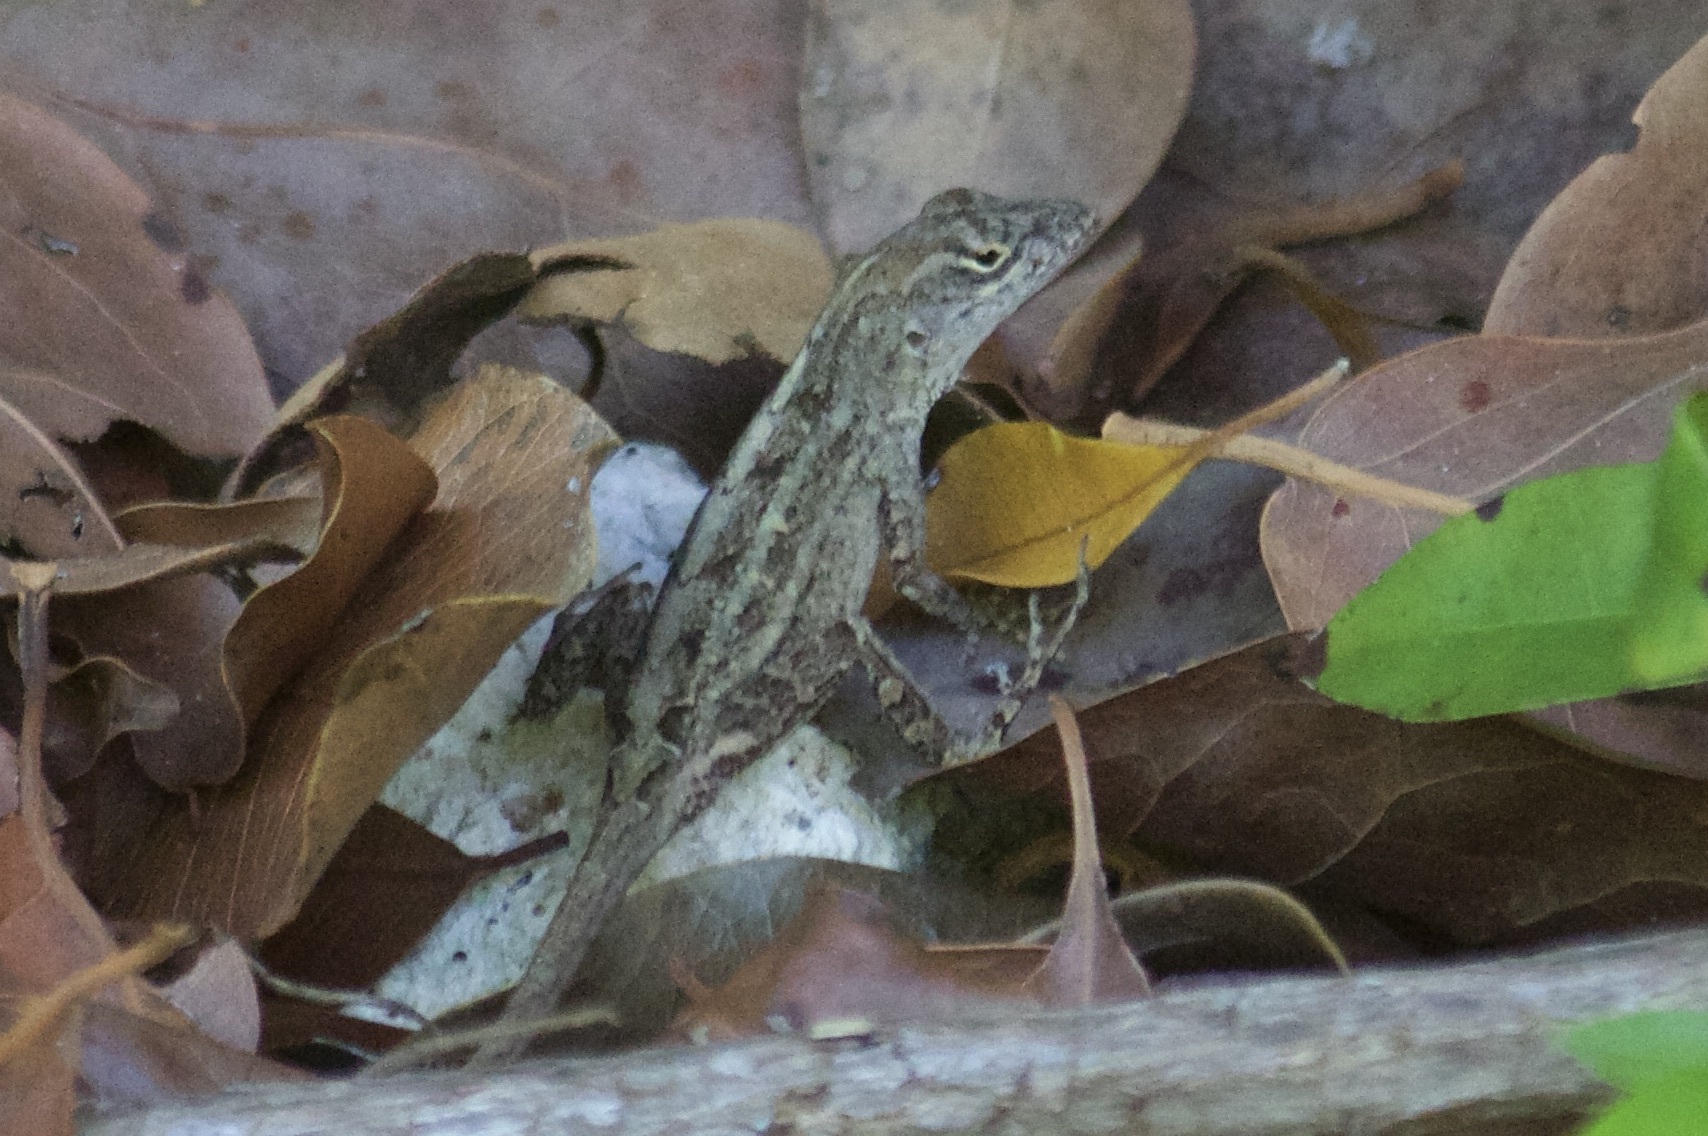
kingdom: Animalia
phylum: Chordata
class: Squamata
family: Dactyloidae
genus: Anolis
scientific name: Anolis sagrei
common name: Brown anole
